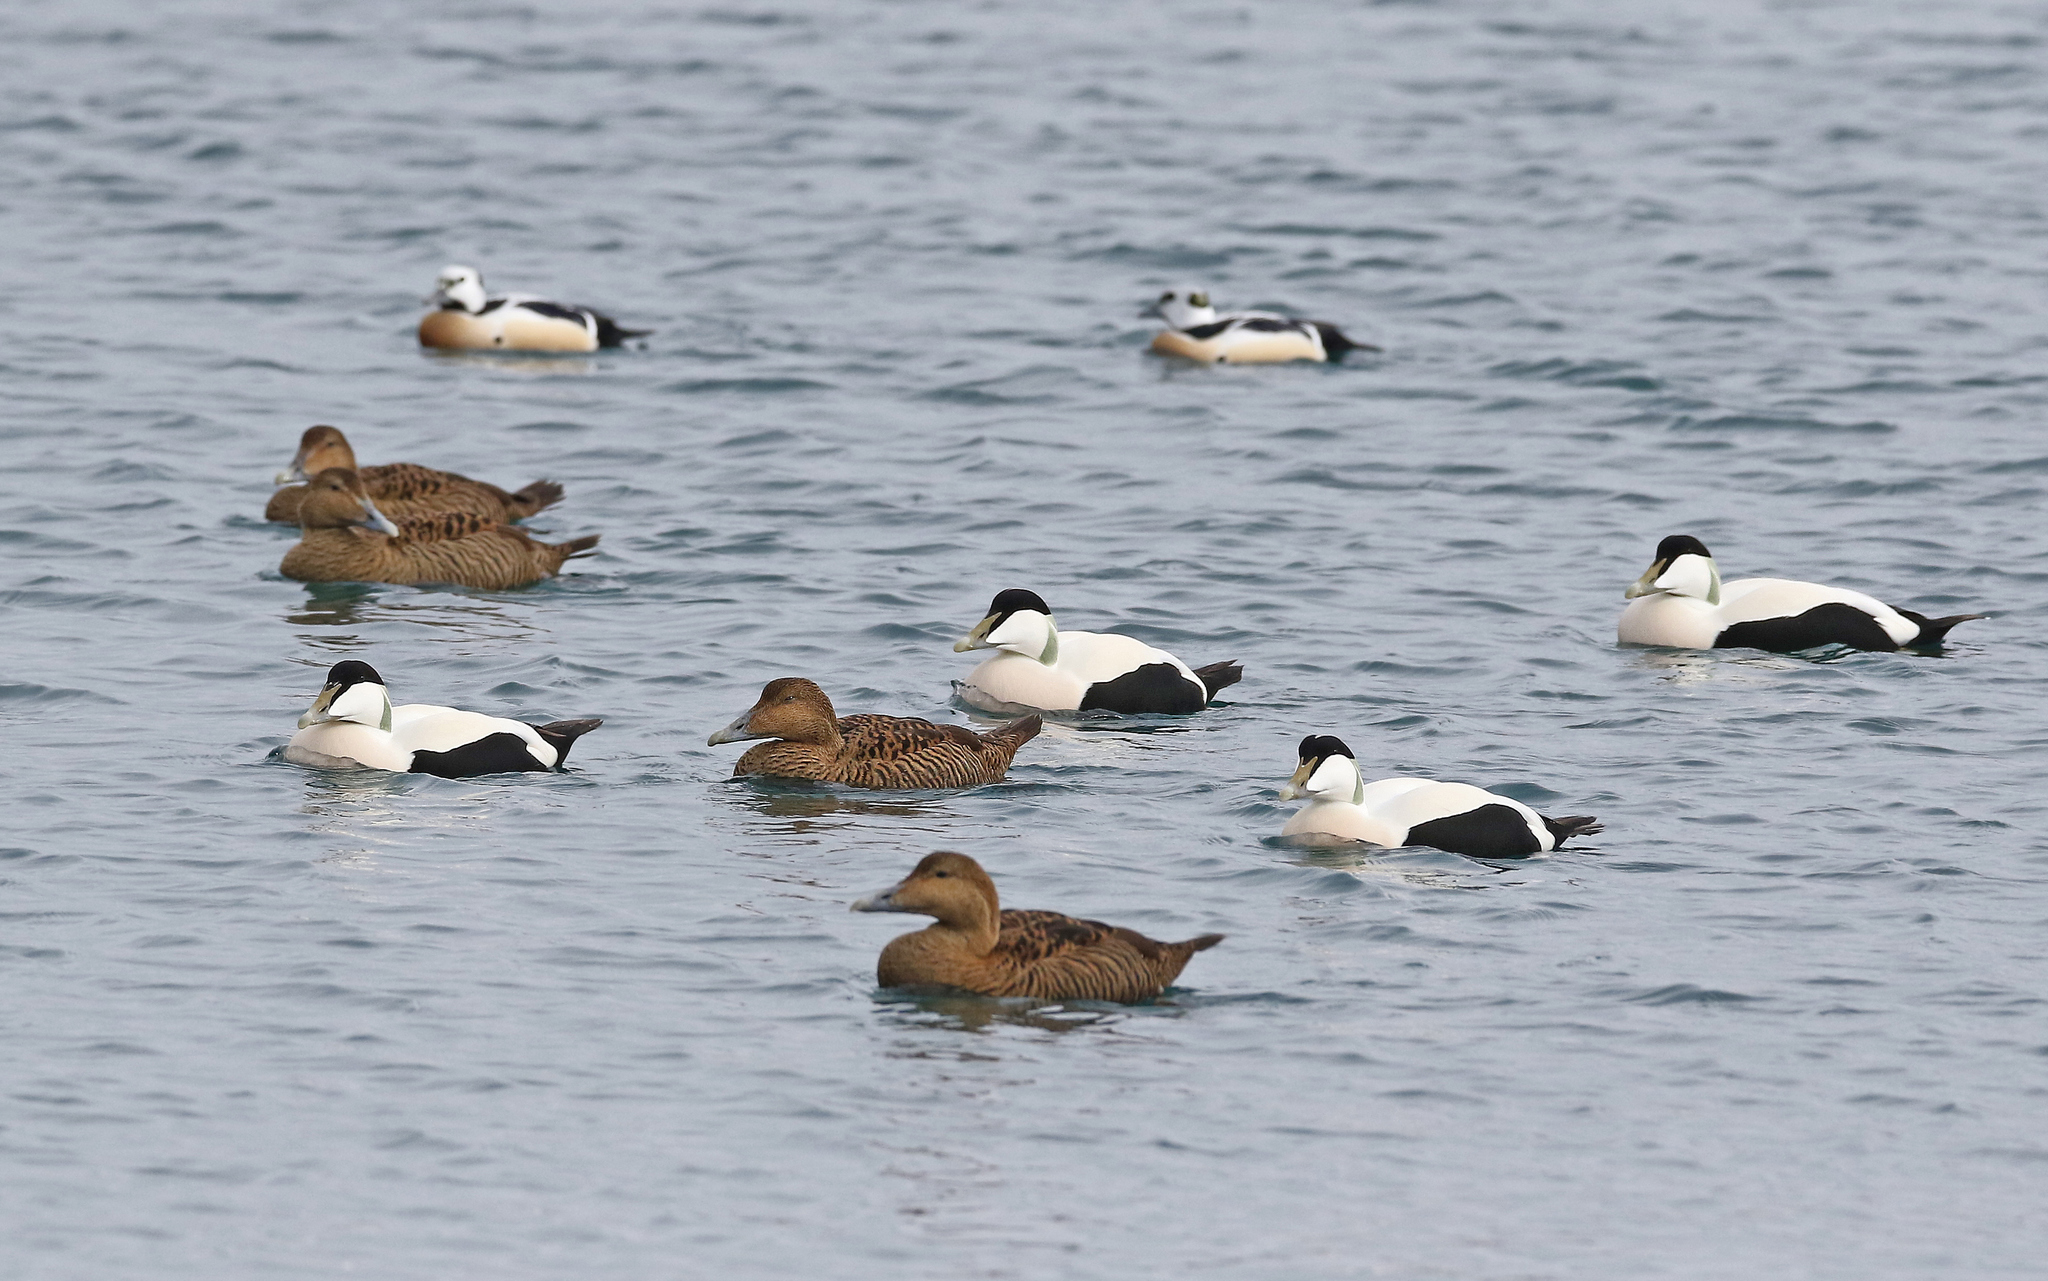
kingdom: Animalia
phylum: Chordata
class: Aves
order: Anseriformes
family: Anatidae
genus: Somateria
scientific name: Somateria mollissima
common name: Common eider
